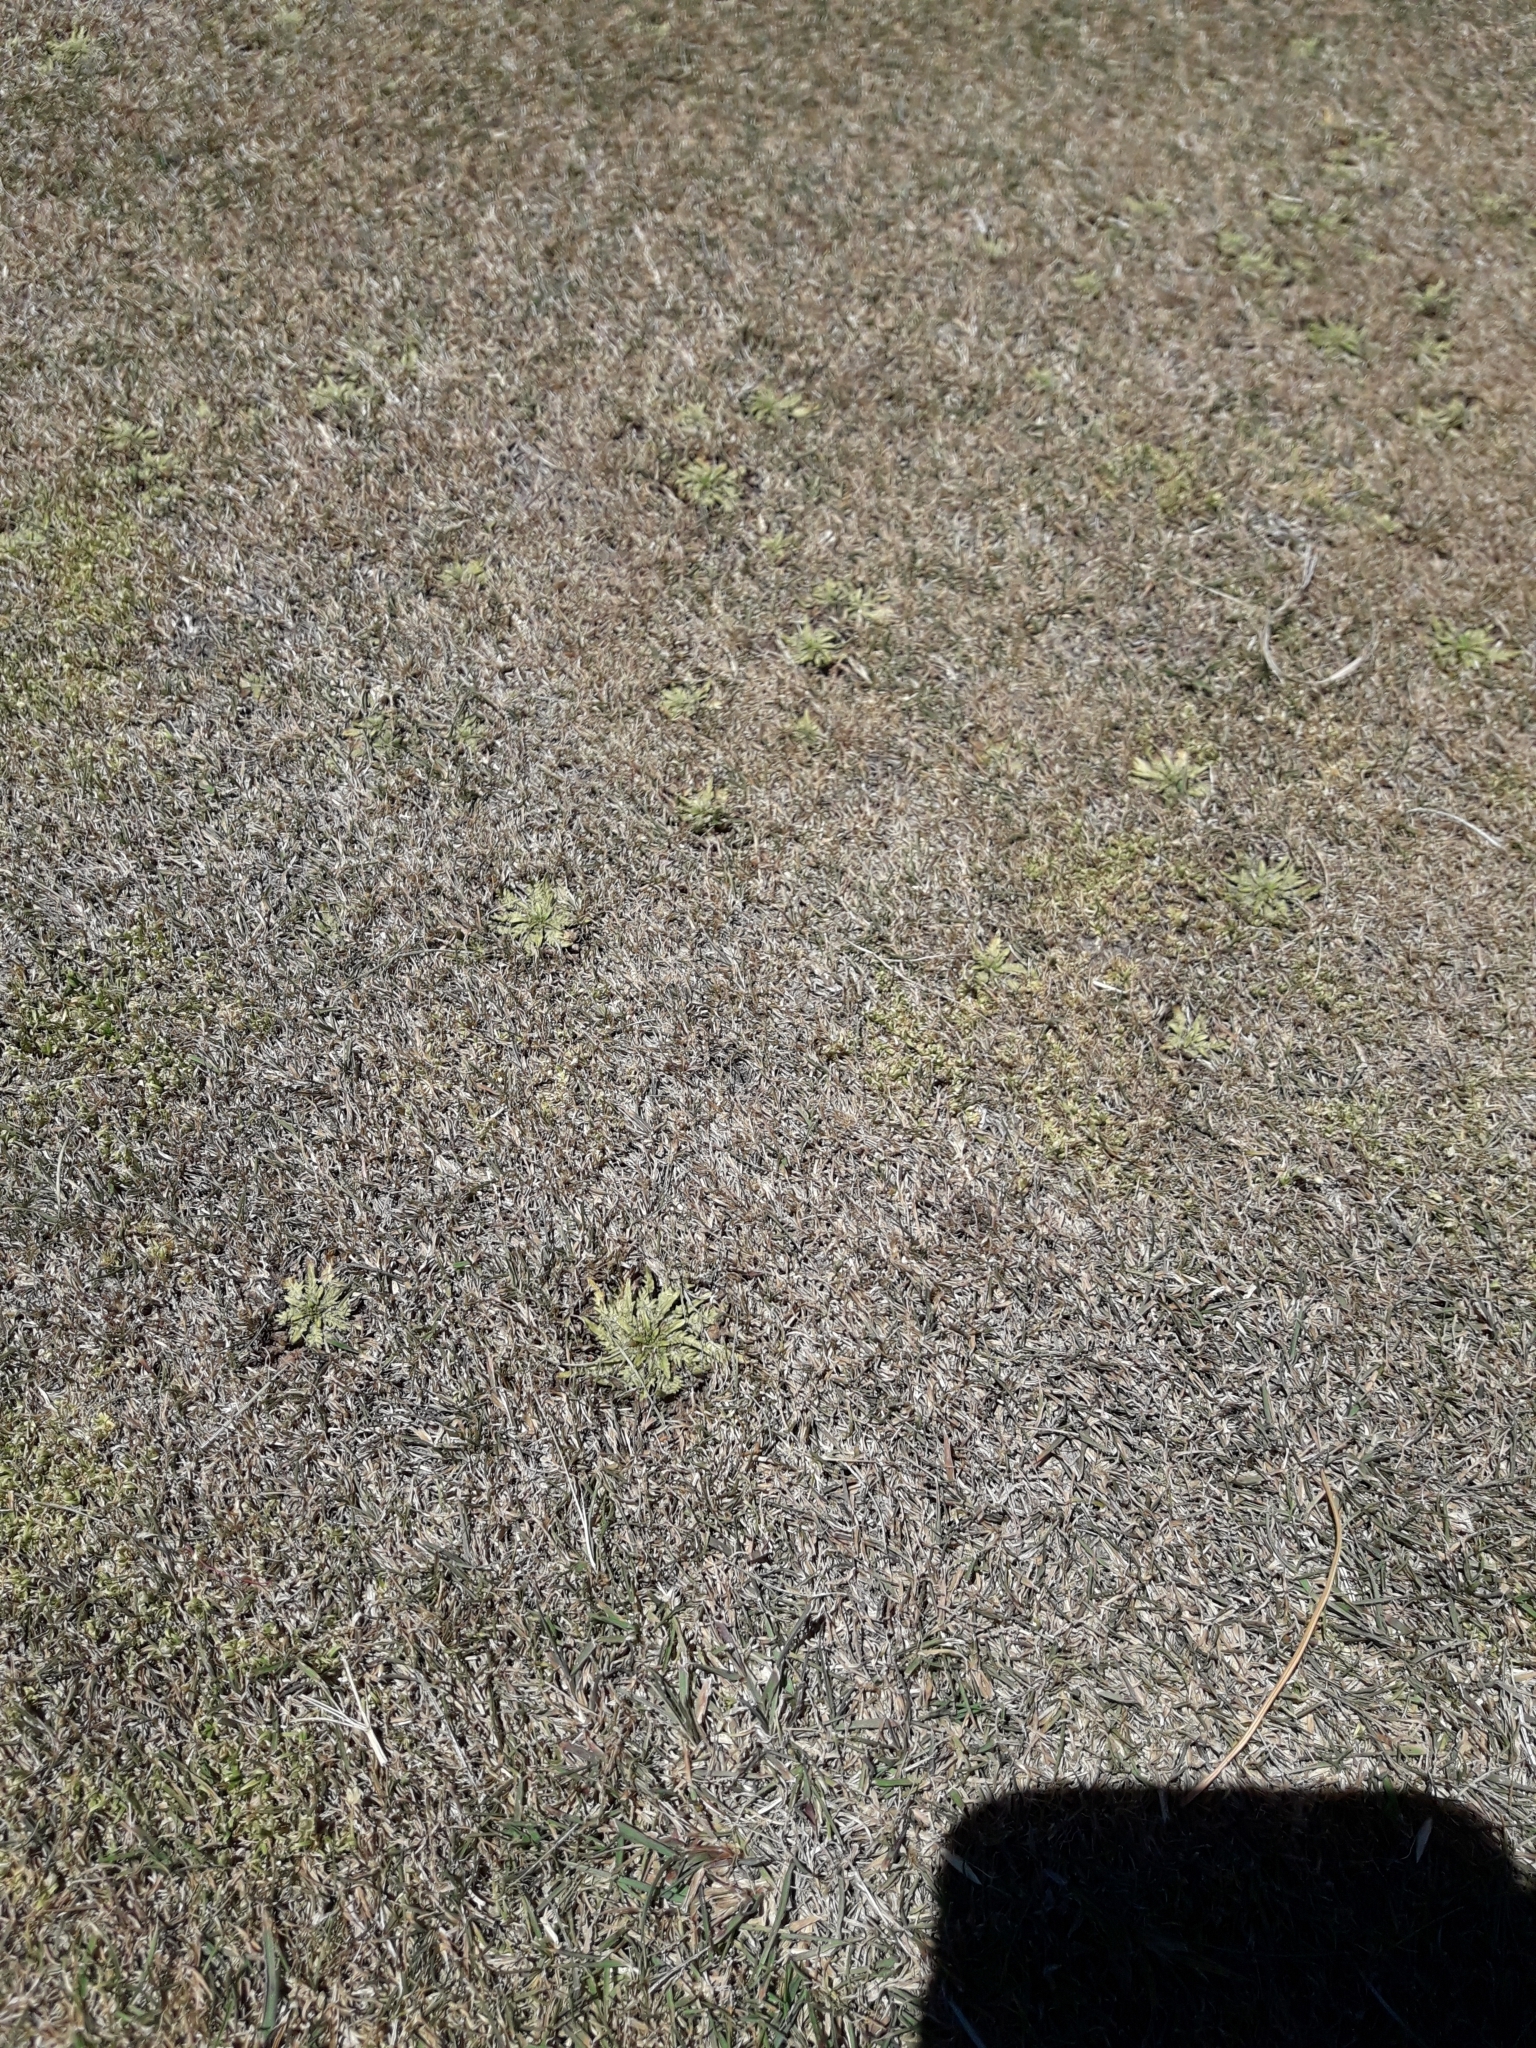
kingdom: Plantae
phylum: Tracheophyta
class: Magnoliopsida
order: Lamiales
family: Plantaginaceae
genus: Plantago
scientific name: Plantago triandra
